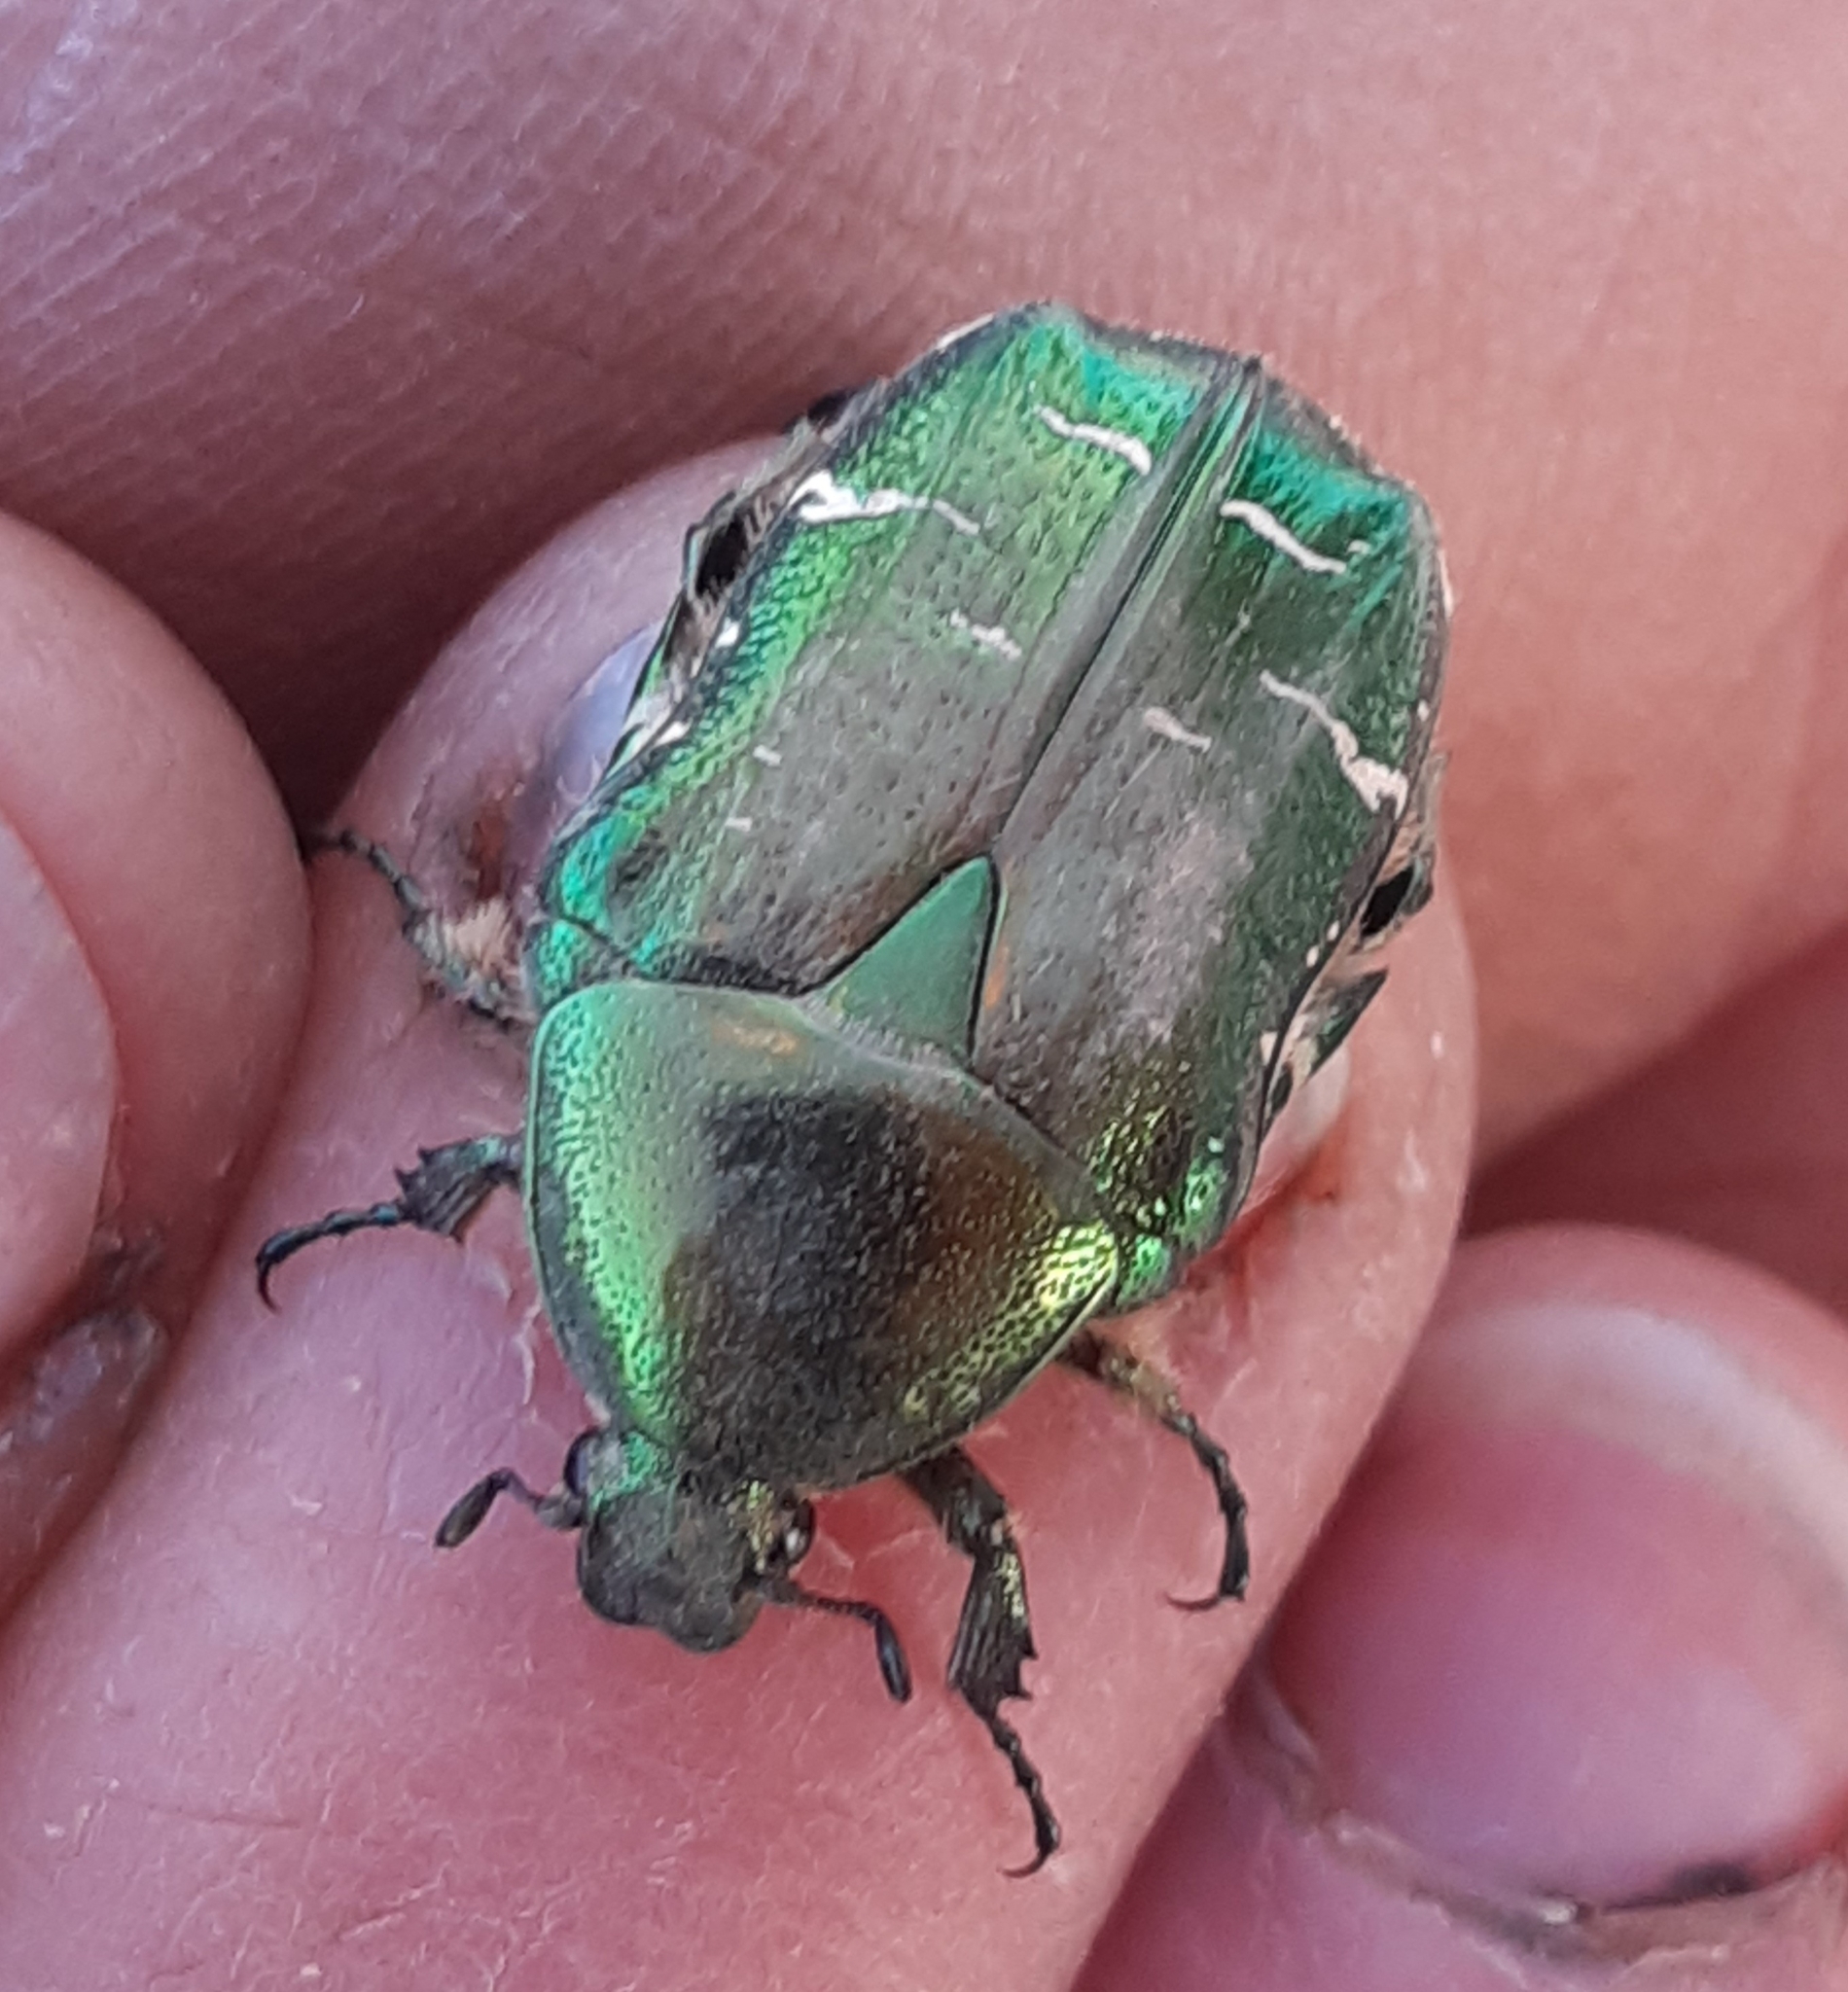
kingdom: Animalia
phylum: Arthropoda
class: Insecta
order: Coleoptera
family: Scarabaeidae
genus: Cetonia
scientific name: Cetonia aurata
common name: Rose chafer
